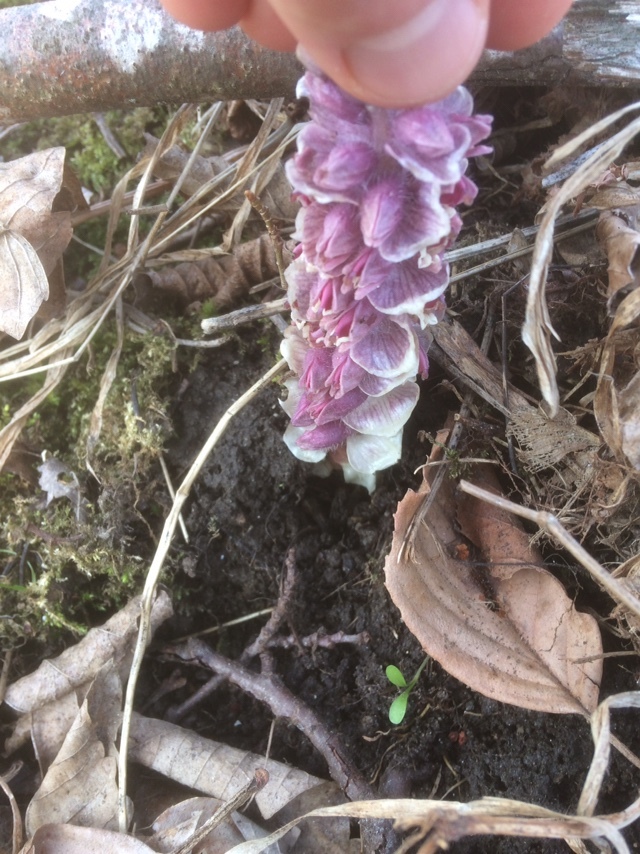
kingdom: Plantae
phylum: Tracheophyta
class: Magnoliopsida
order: Lamiales
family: Orobanchaceae
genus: Lathraea
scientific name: Lathraea squamaria
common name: Toothwort
